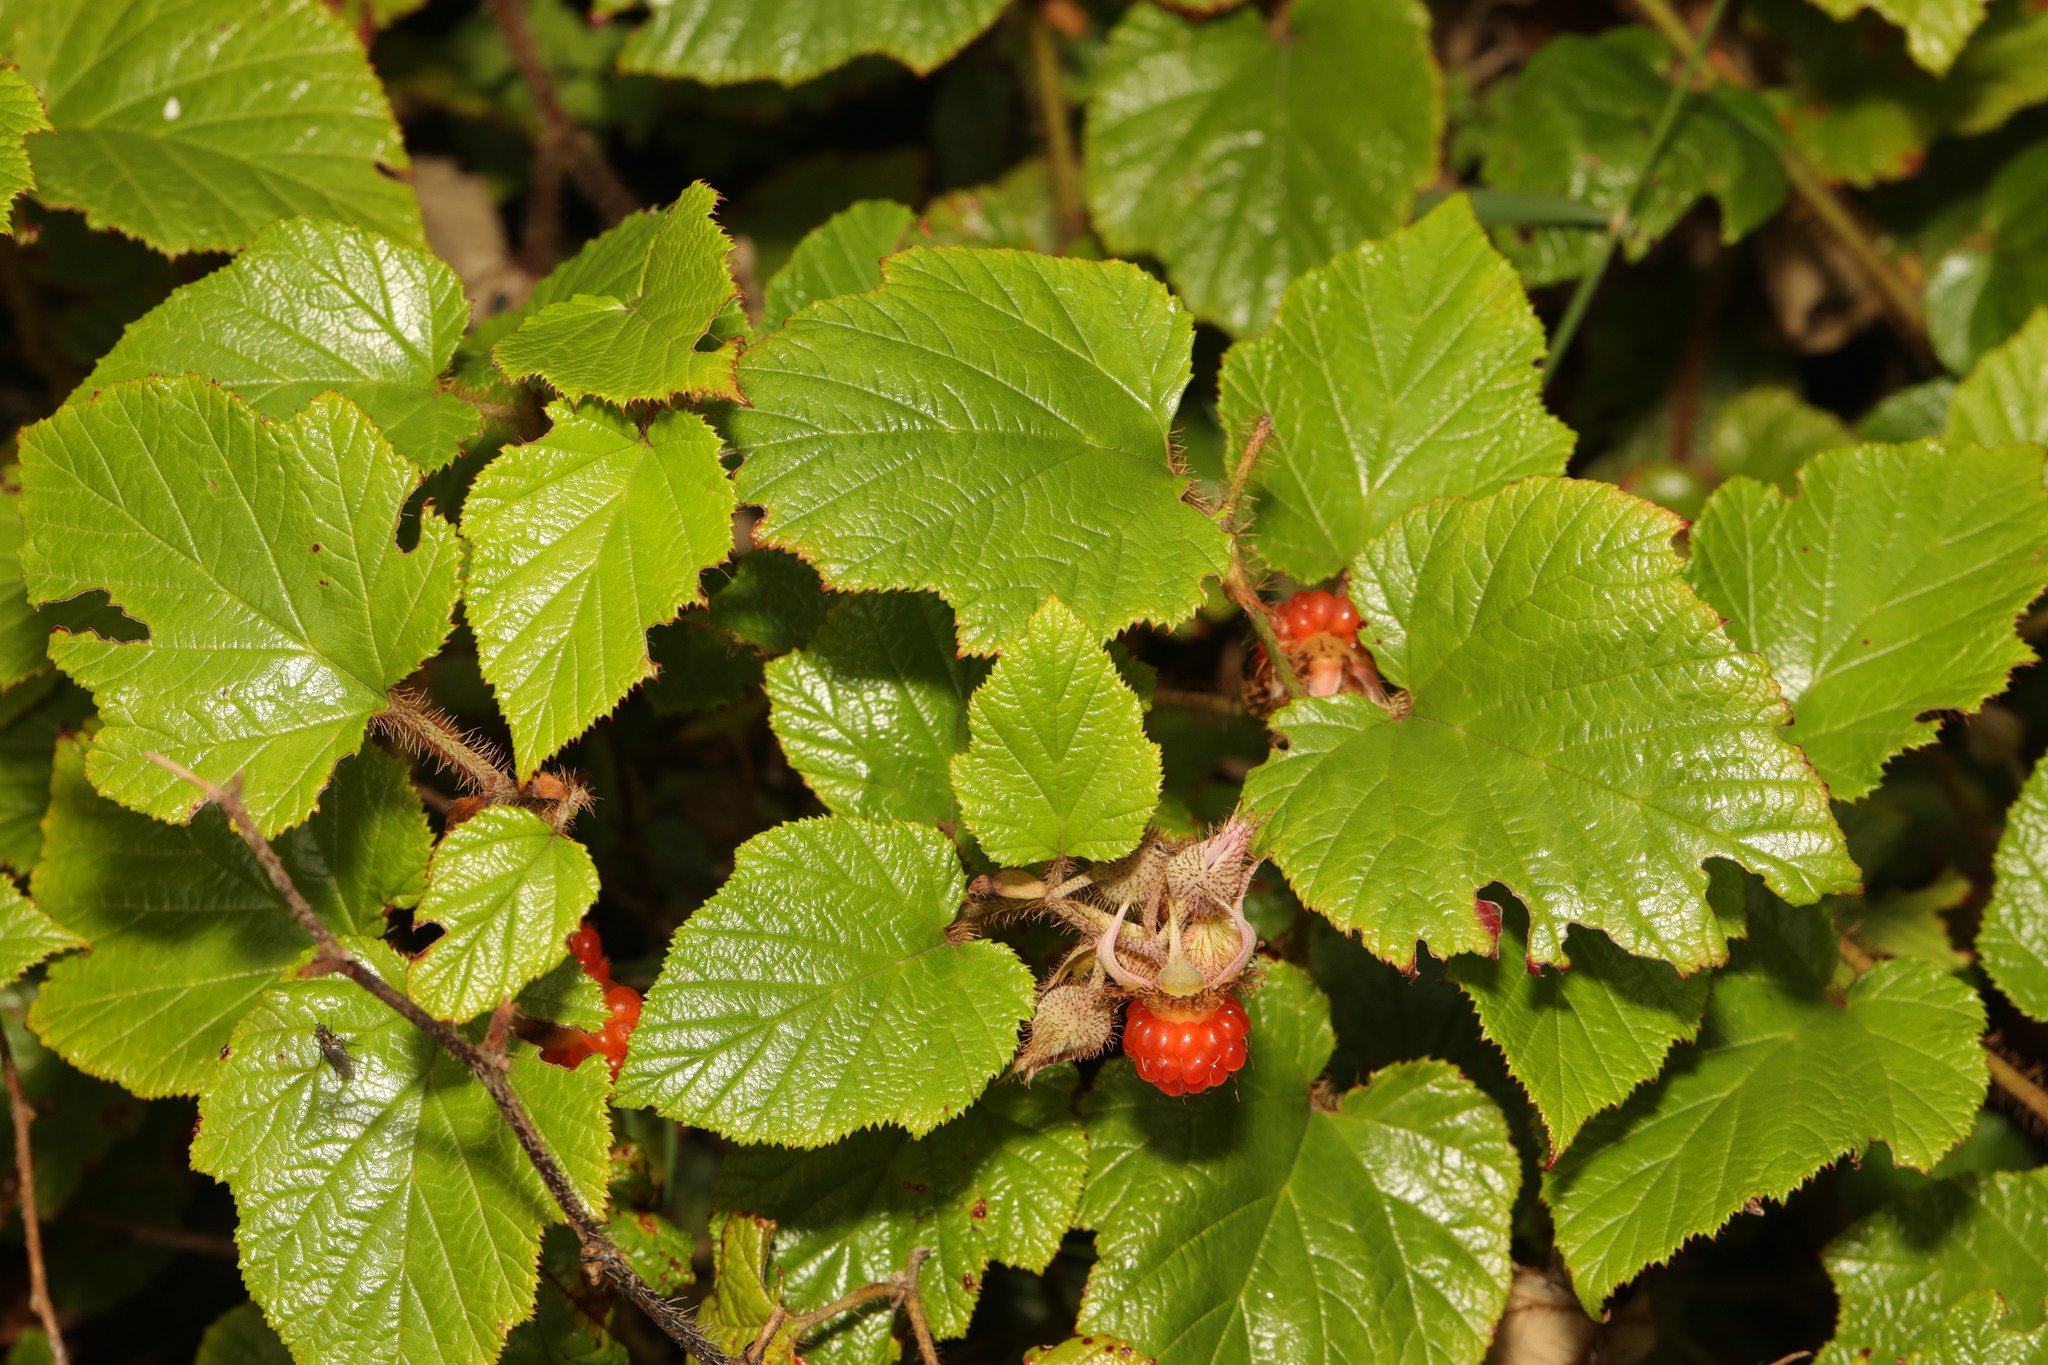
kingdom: Plantae
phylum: Tracheophyta
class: Magnoliopsida
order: Rosales
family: Rosaceae
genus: Rubus
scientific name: Rubus tricolor
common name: Chinese bramble
